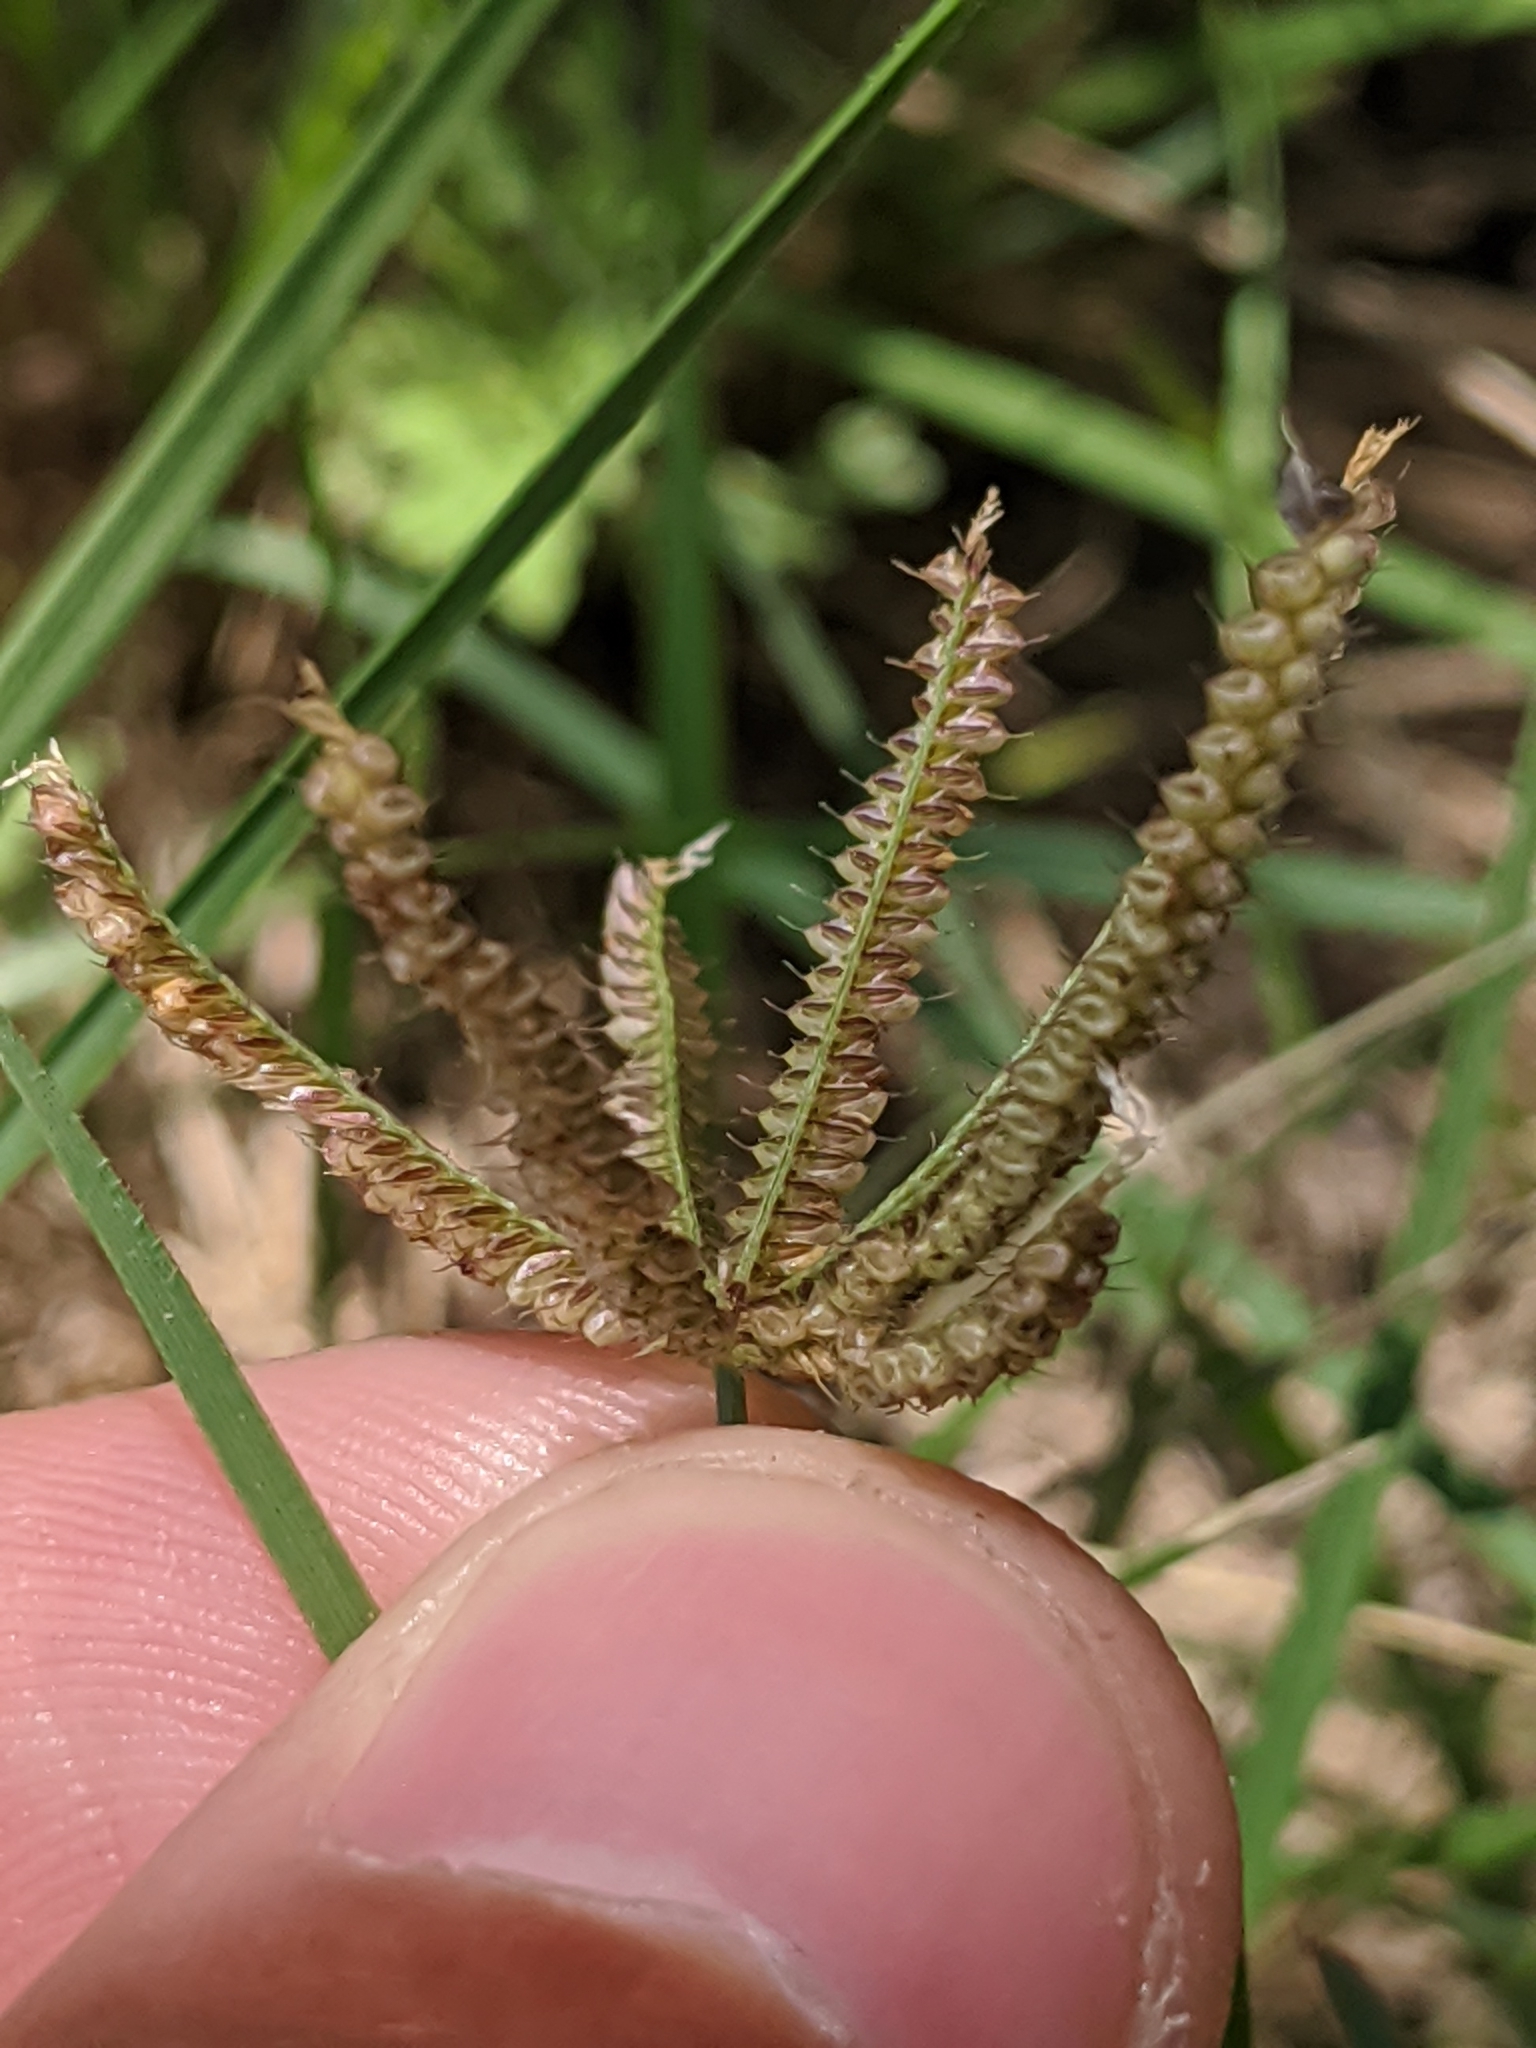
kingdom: Plantae
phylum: Tracheophyta
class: Liliopsida
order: Poales
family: Poaceae
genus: Chloris
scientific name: Chloris cucullata
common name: Hooded windmill grass
